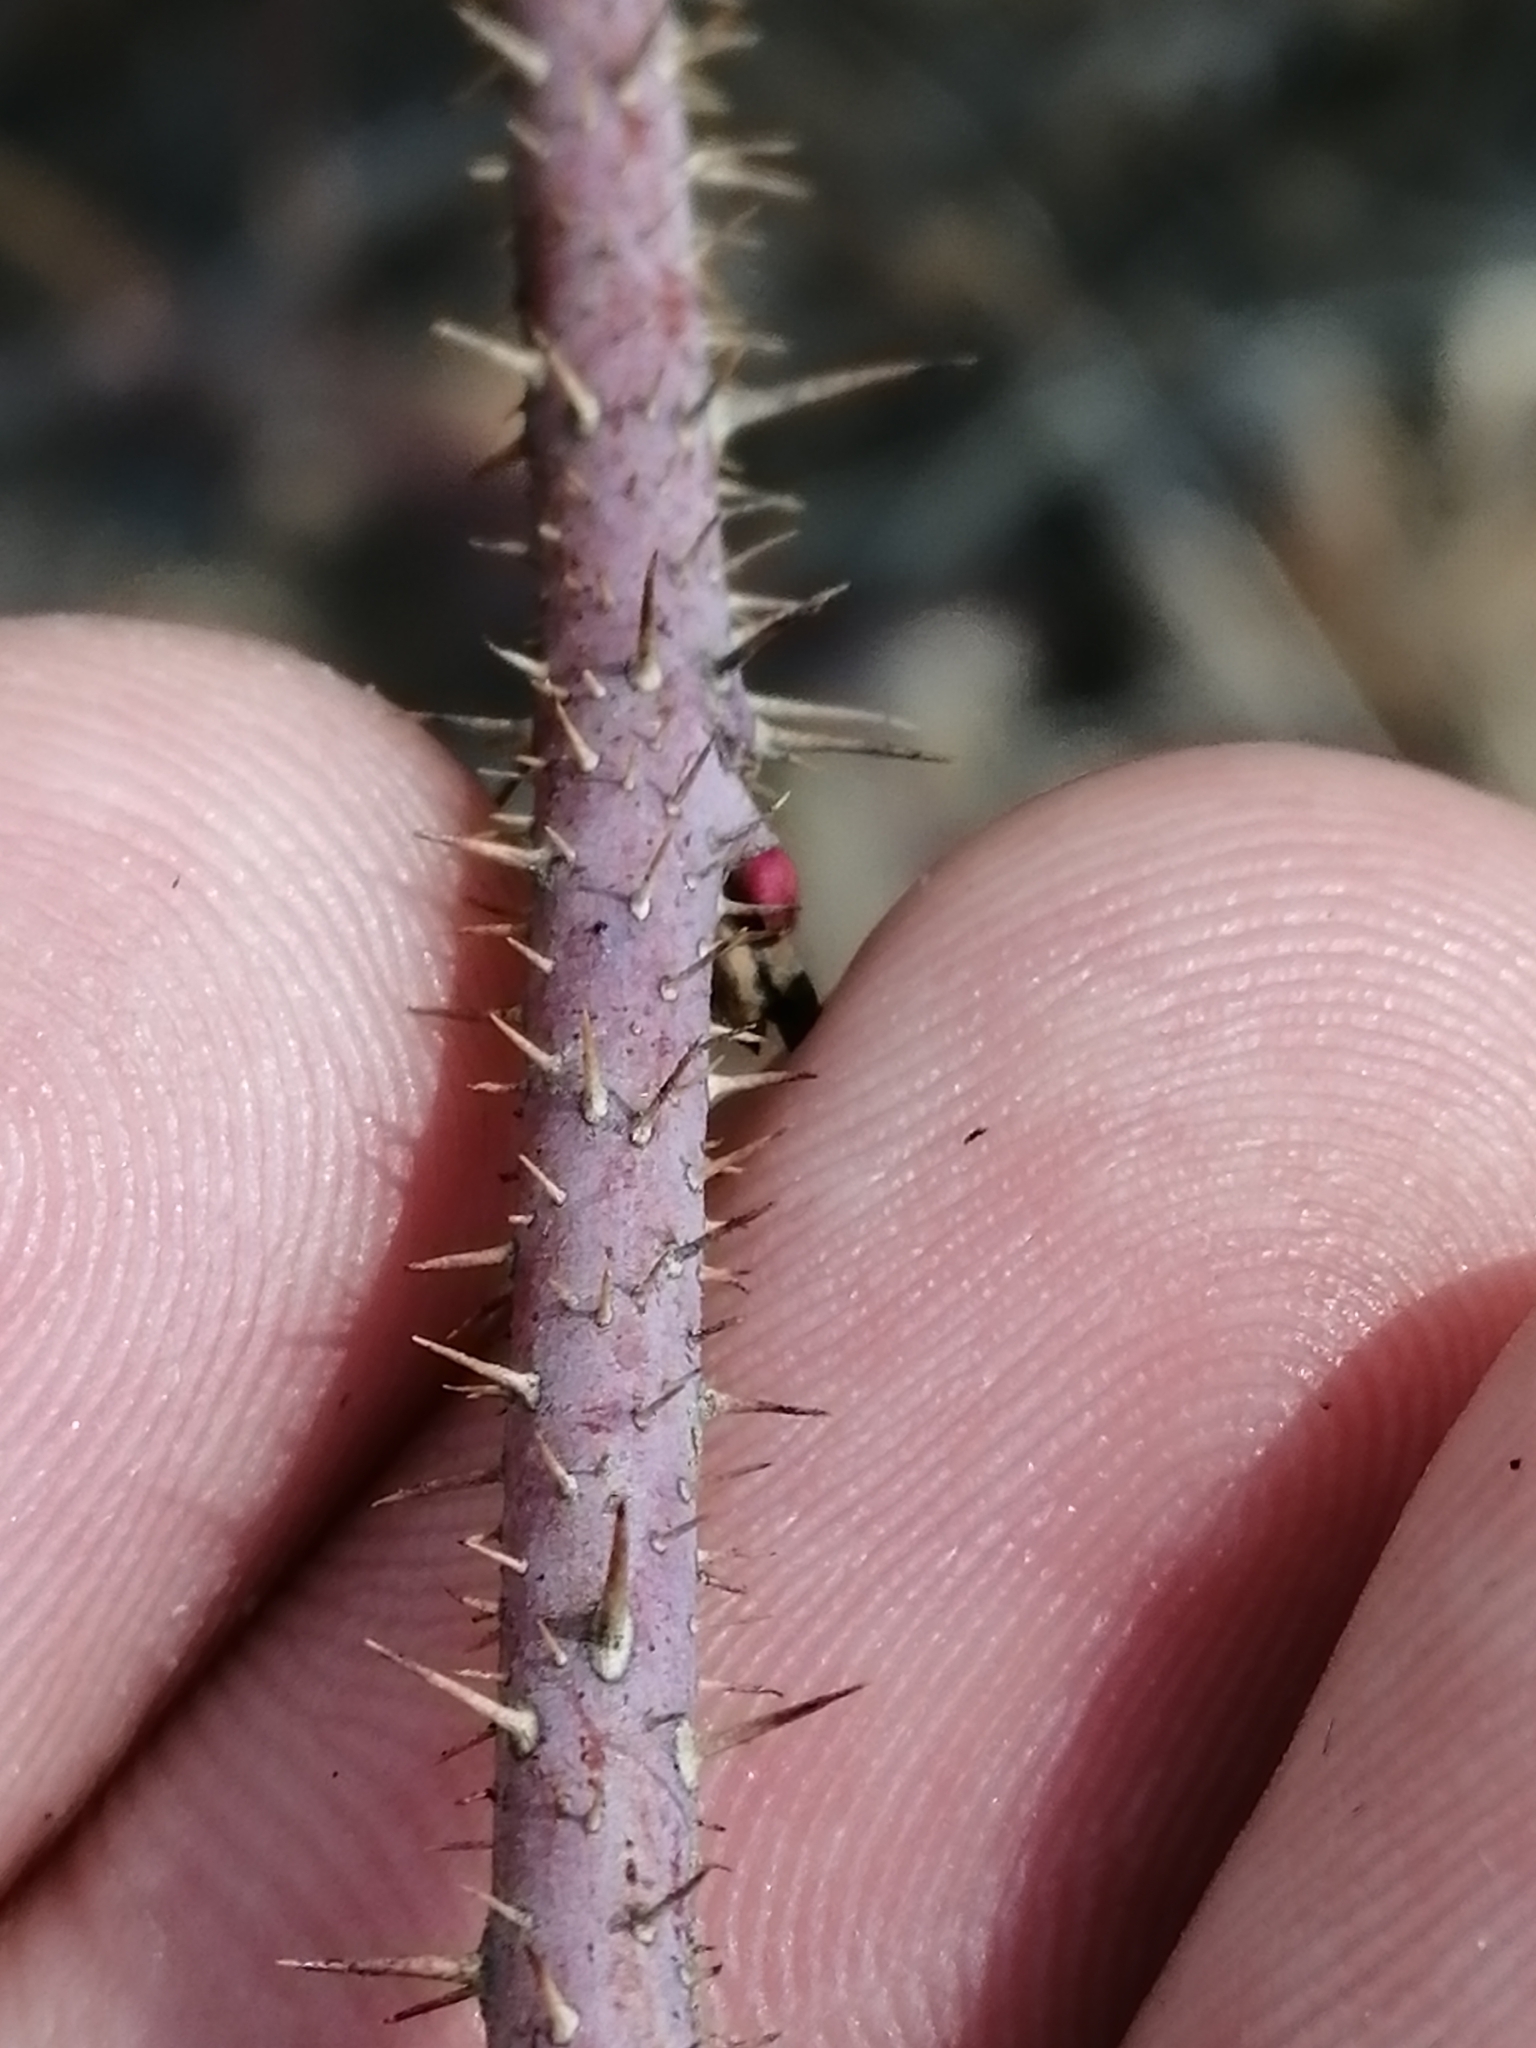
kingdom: Plantae
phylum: Tracheophyta
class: Magnoliopsida
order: Rosales
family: Rosaceae
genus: Rosa
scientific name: Rosa acicularis
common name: Prickly rose
